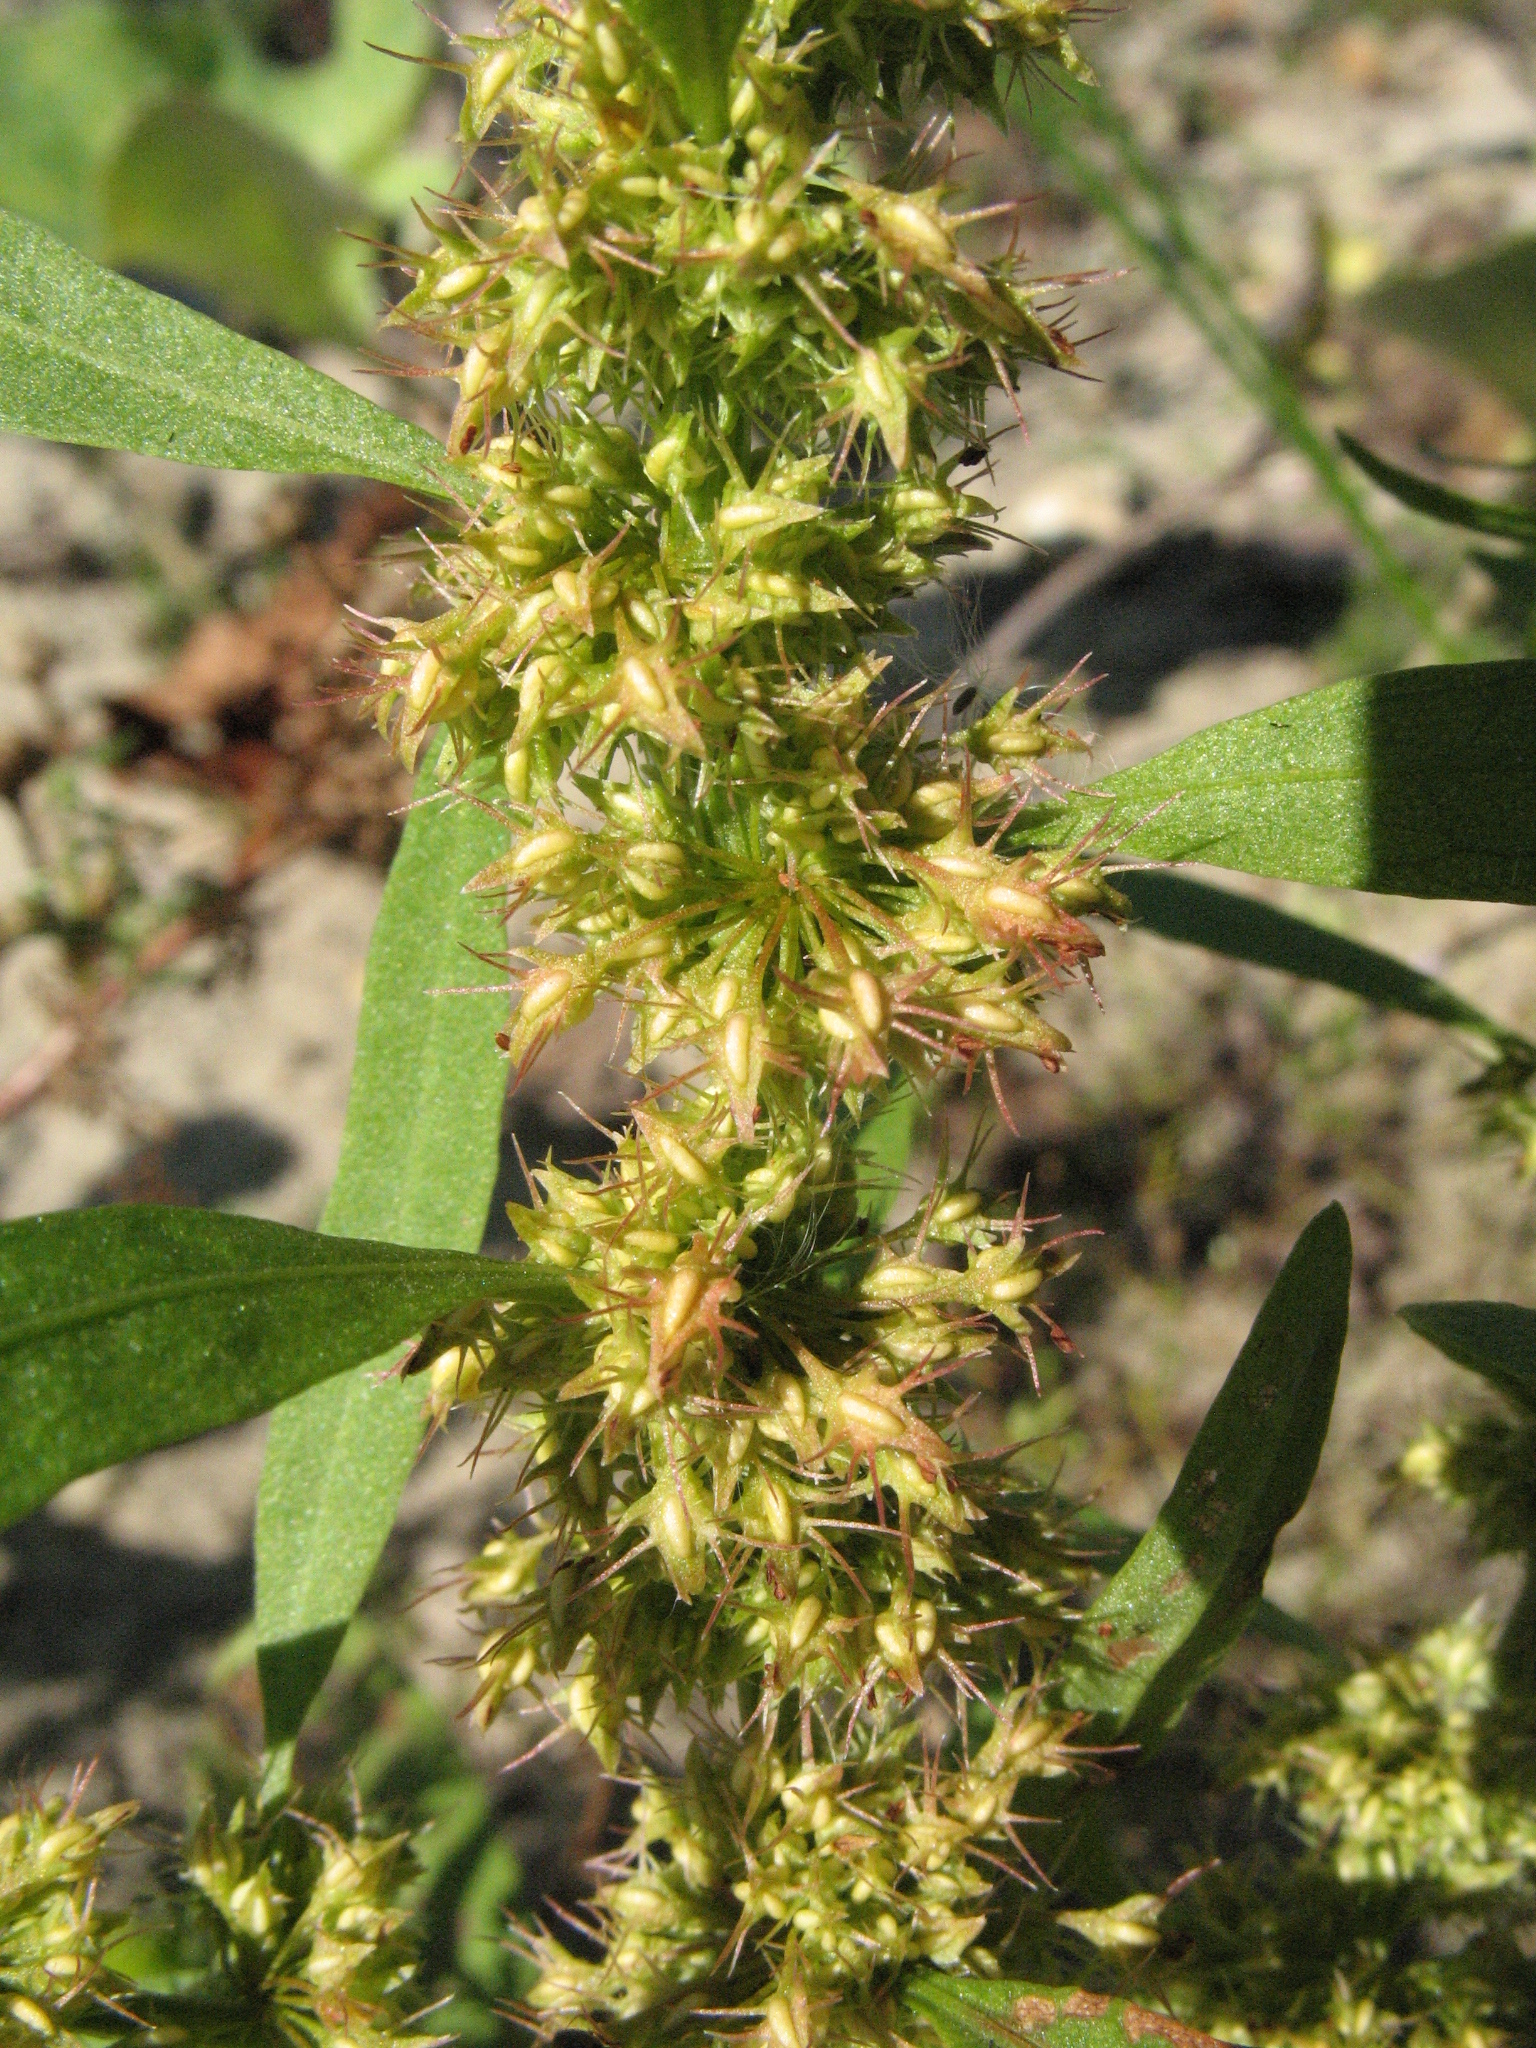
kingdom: Plantae
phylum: Tracheophyta
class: Magnoliopsida
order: Caryophyllales
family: Polygonaceae
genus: Rumex
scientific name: Rumex maritimus
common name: Golden dock
